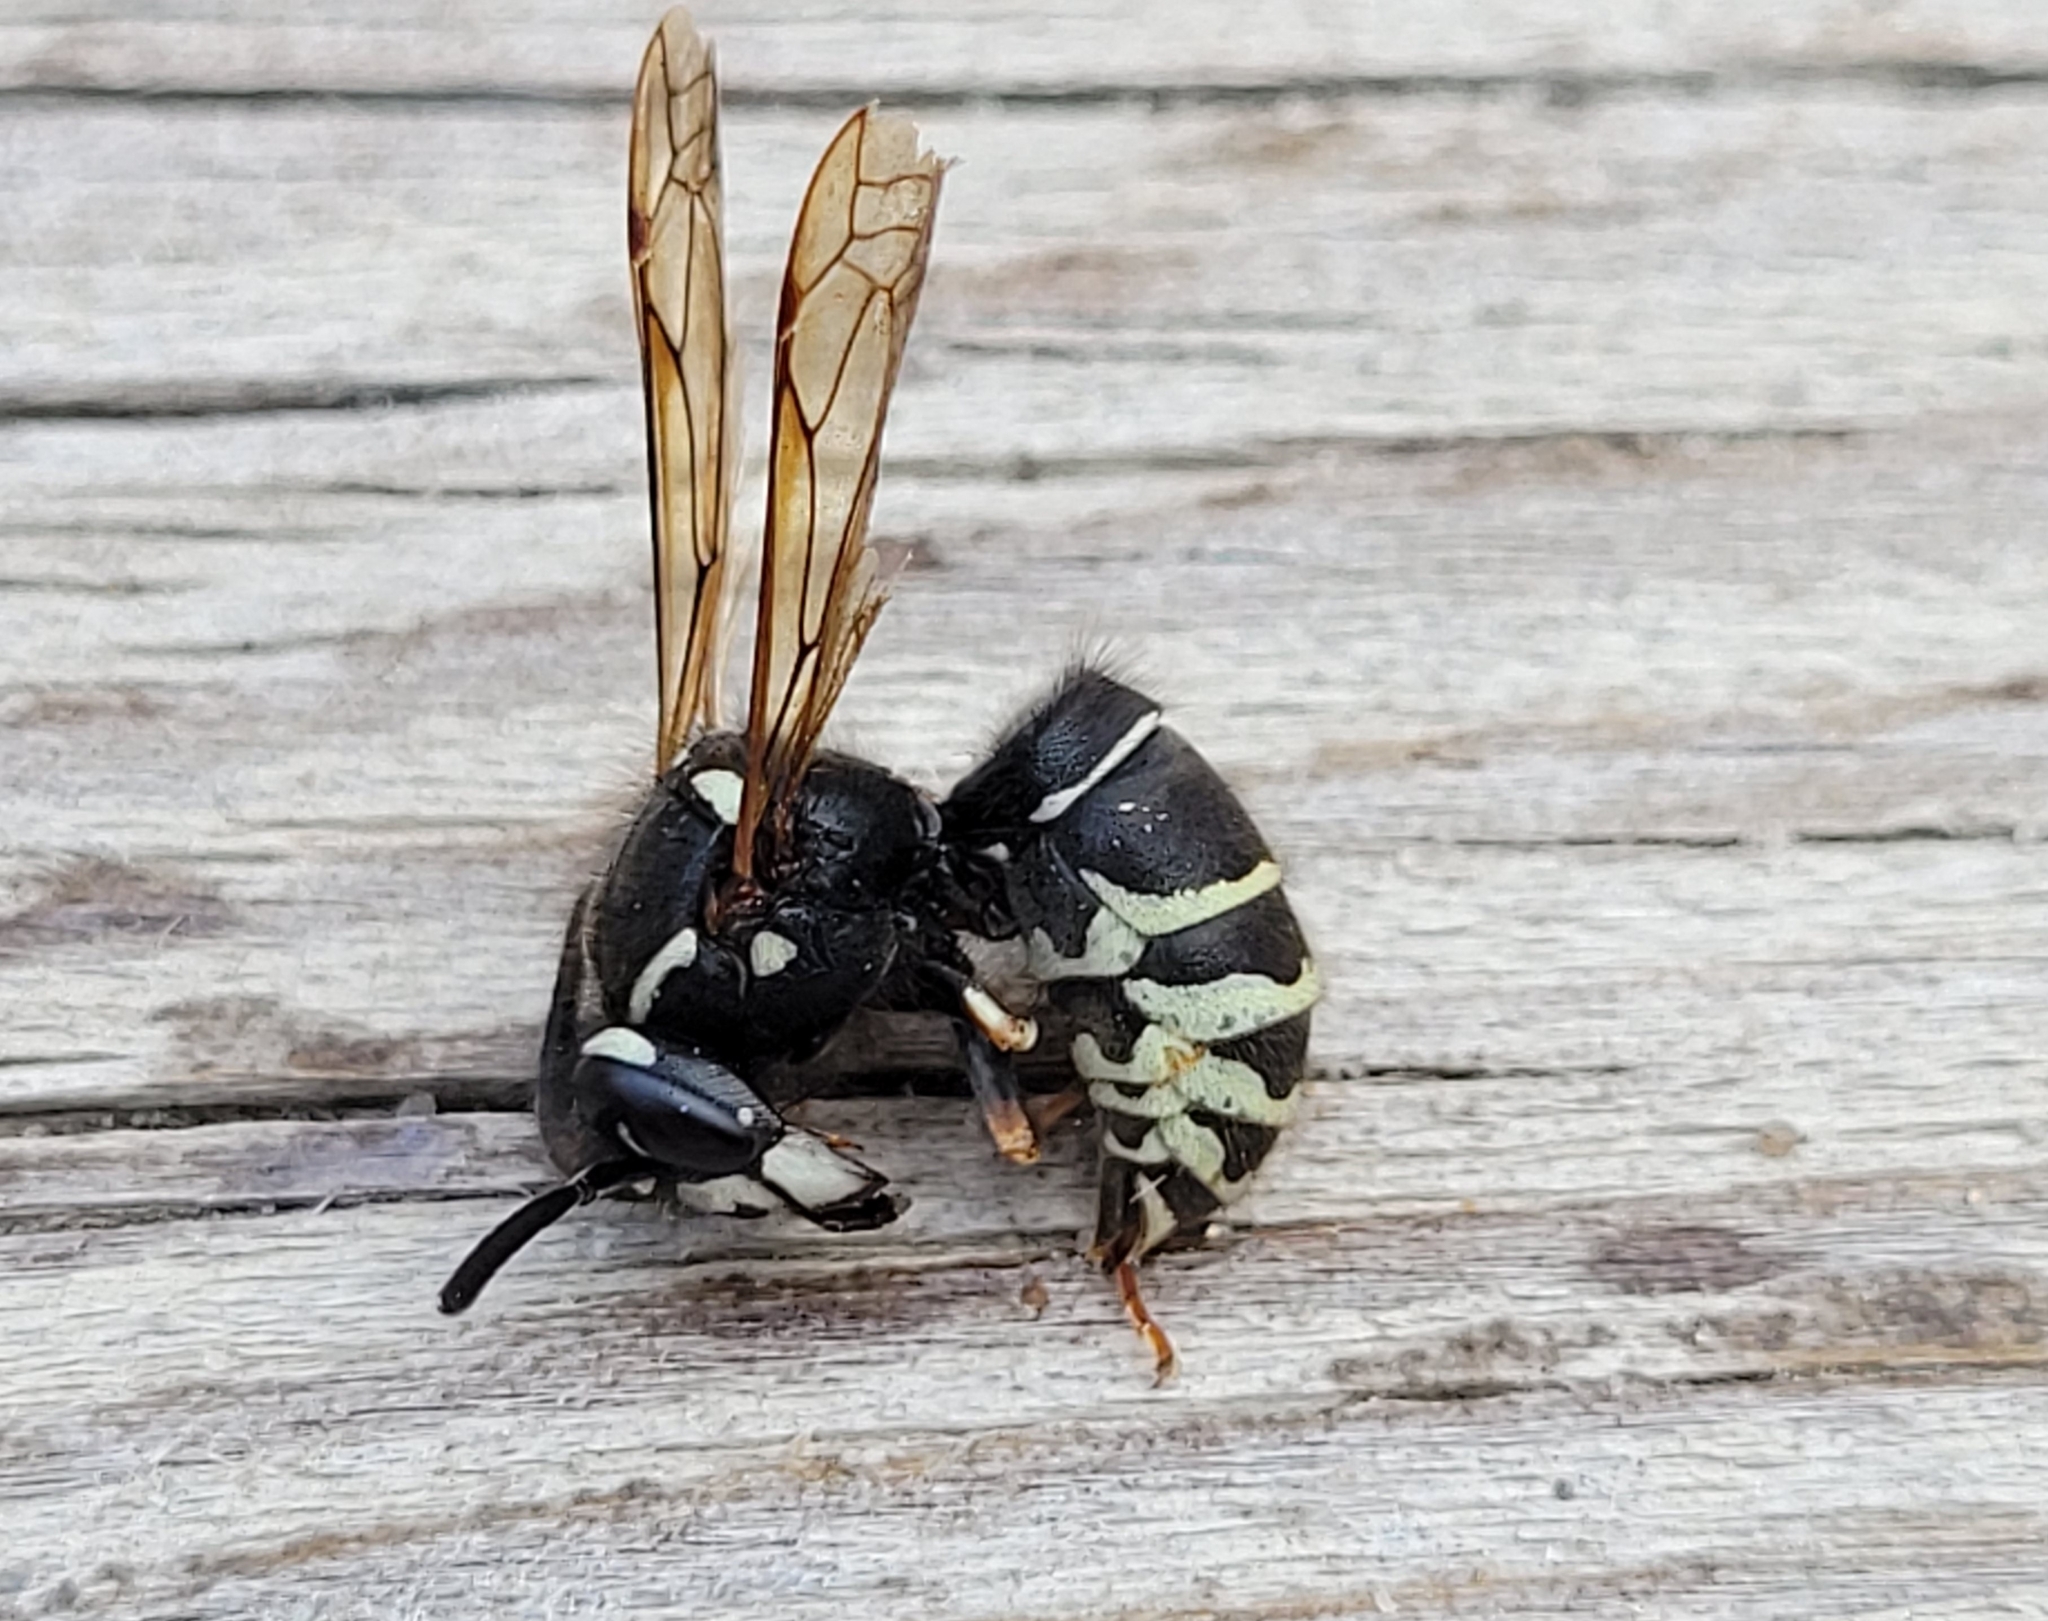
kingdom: Animalia
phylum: Arthropoda
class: Insecta
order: Hymenoptera
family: Vespidae
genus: Vespula
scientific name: Vespula consobrina
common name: Blackjacket
